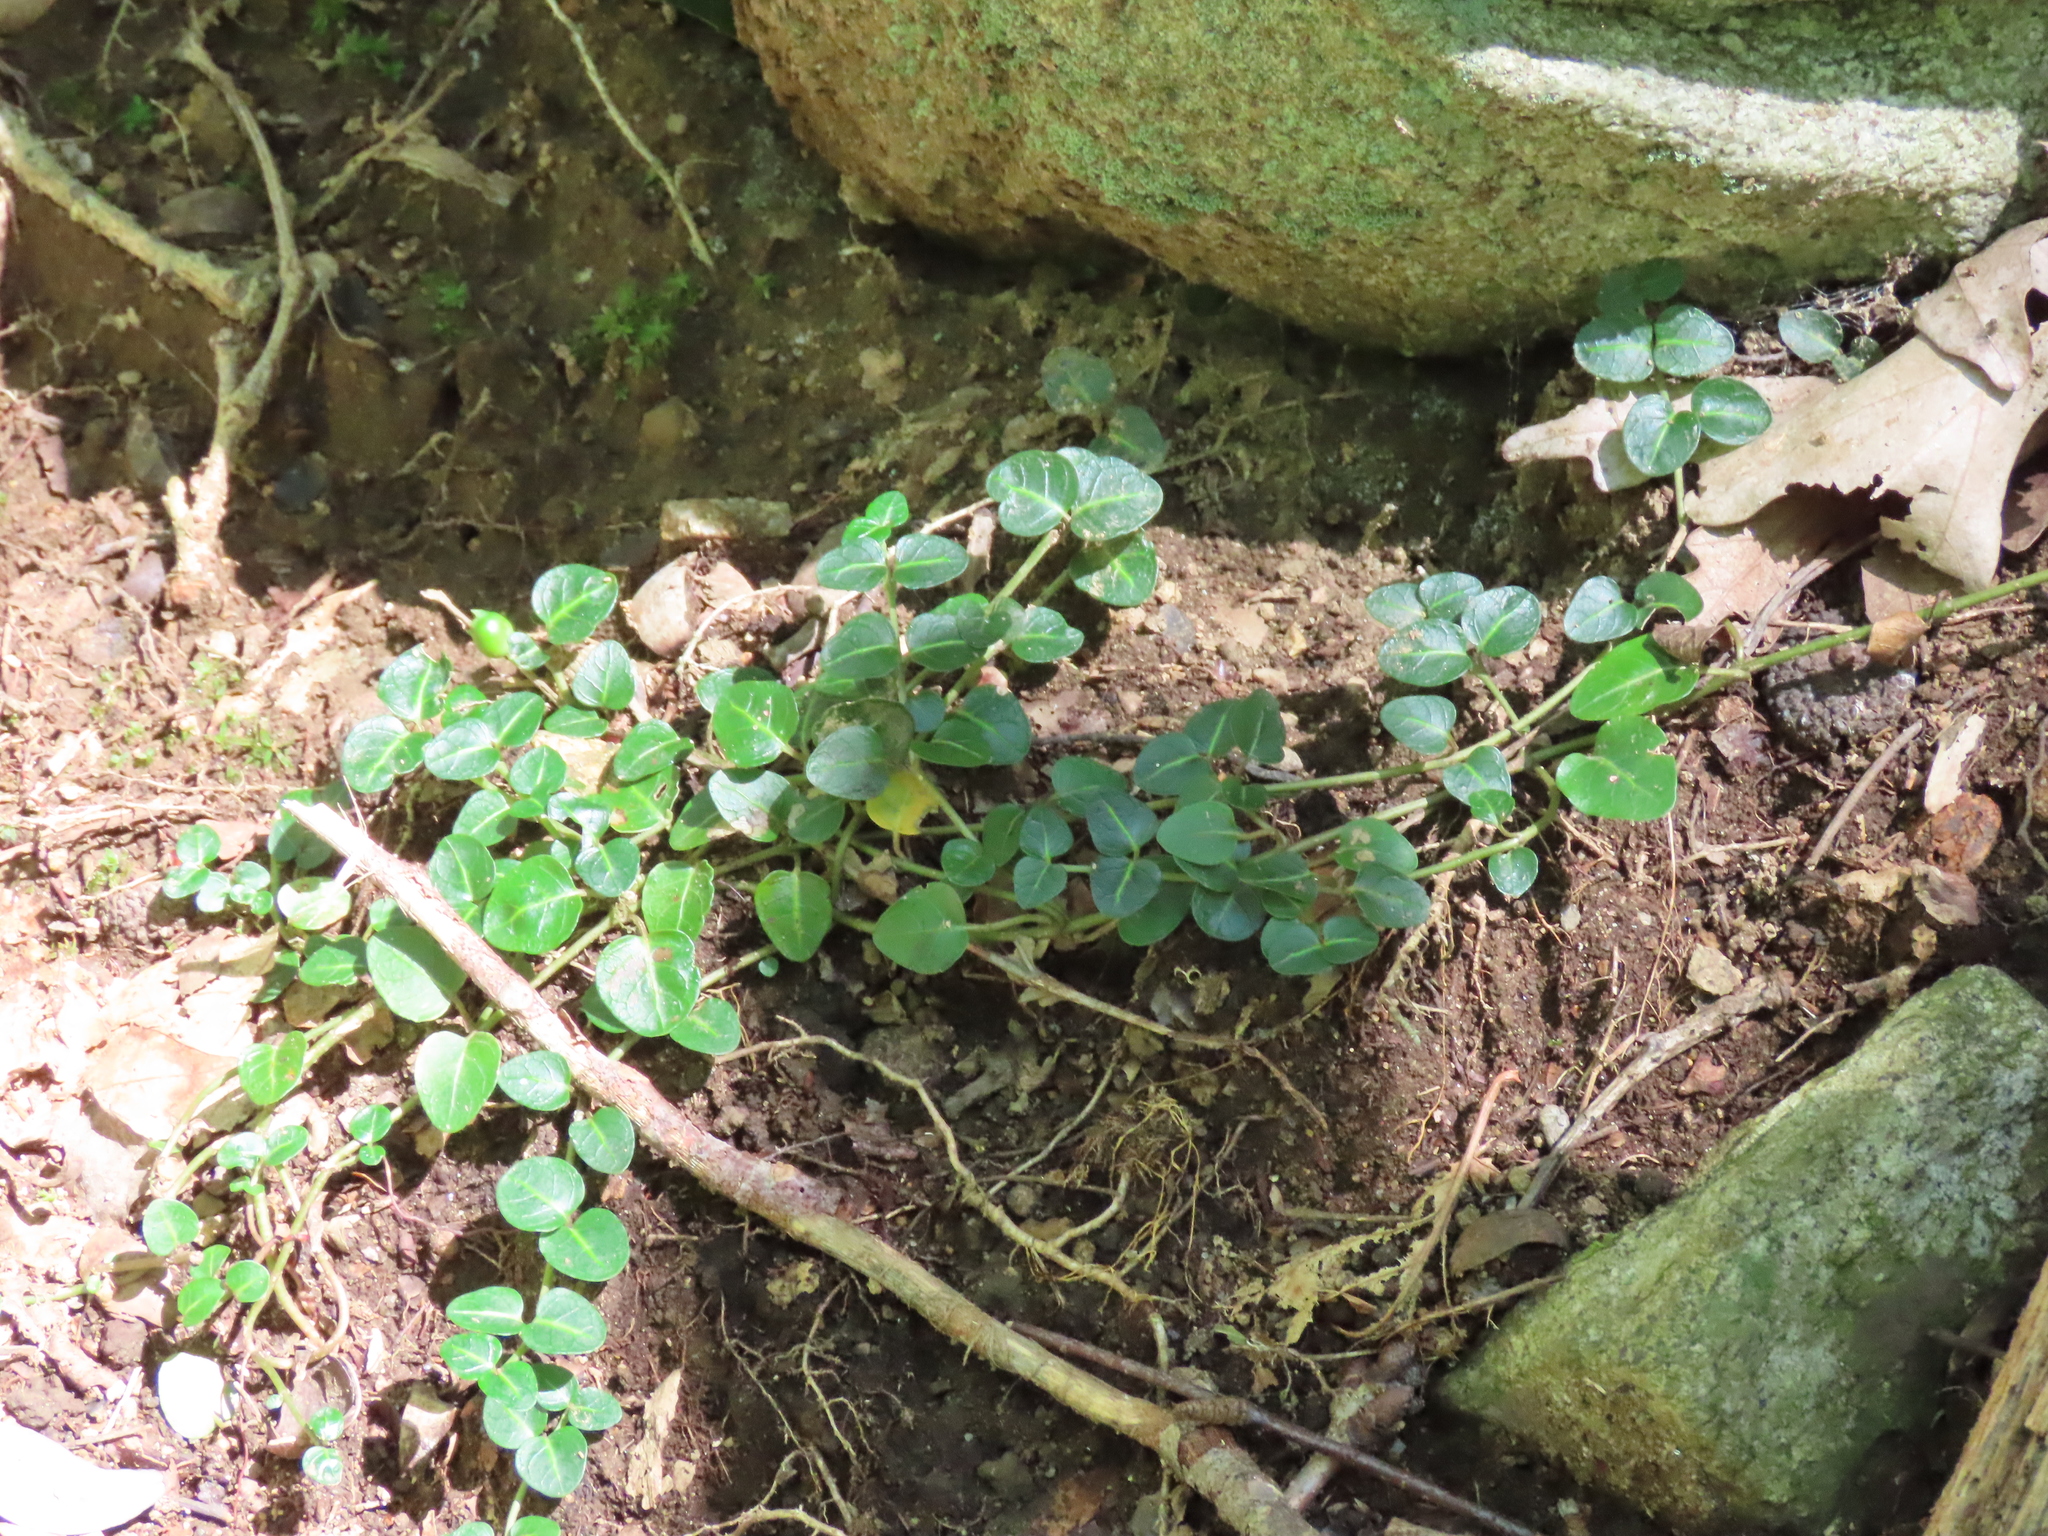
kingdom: Plantae
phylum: Tracheophyta
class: Magnoliopsida
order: Gentianales
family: Rubiaceae
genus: Mitchella
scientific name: Mitchella repens
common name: Partridge-berry
